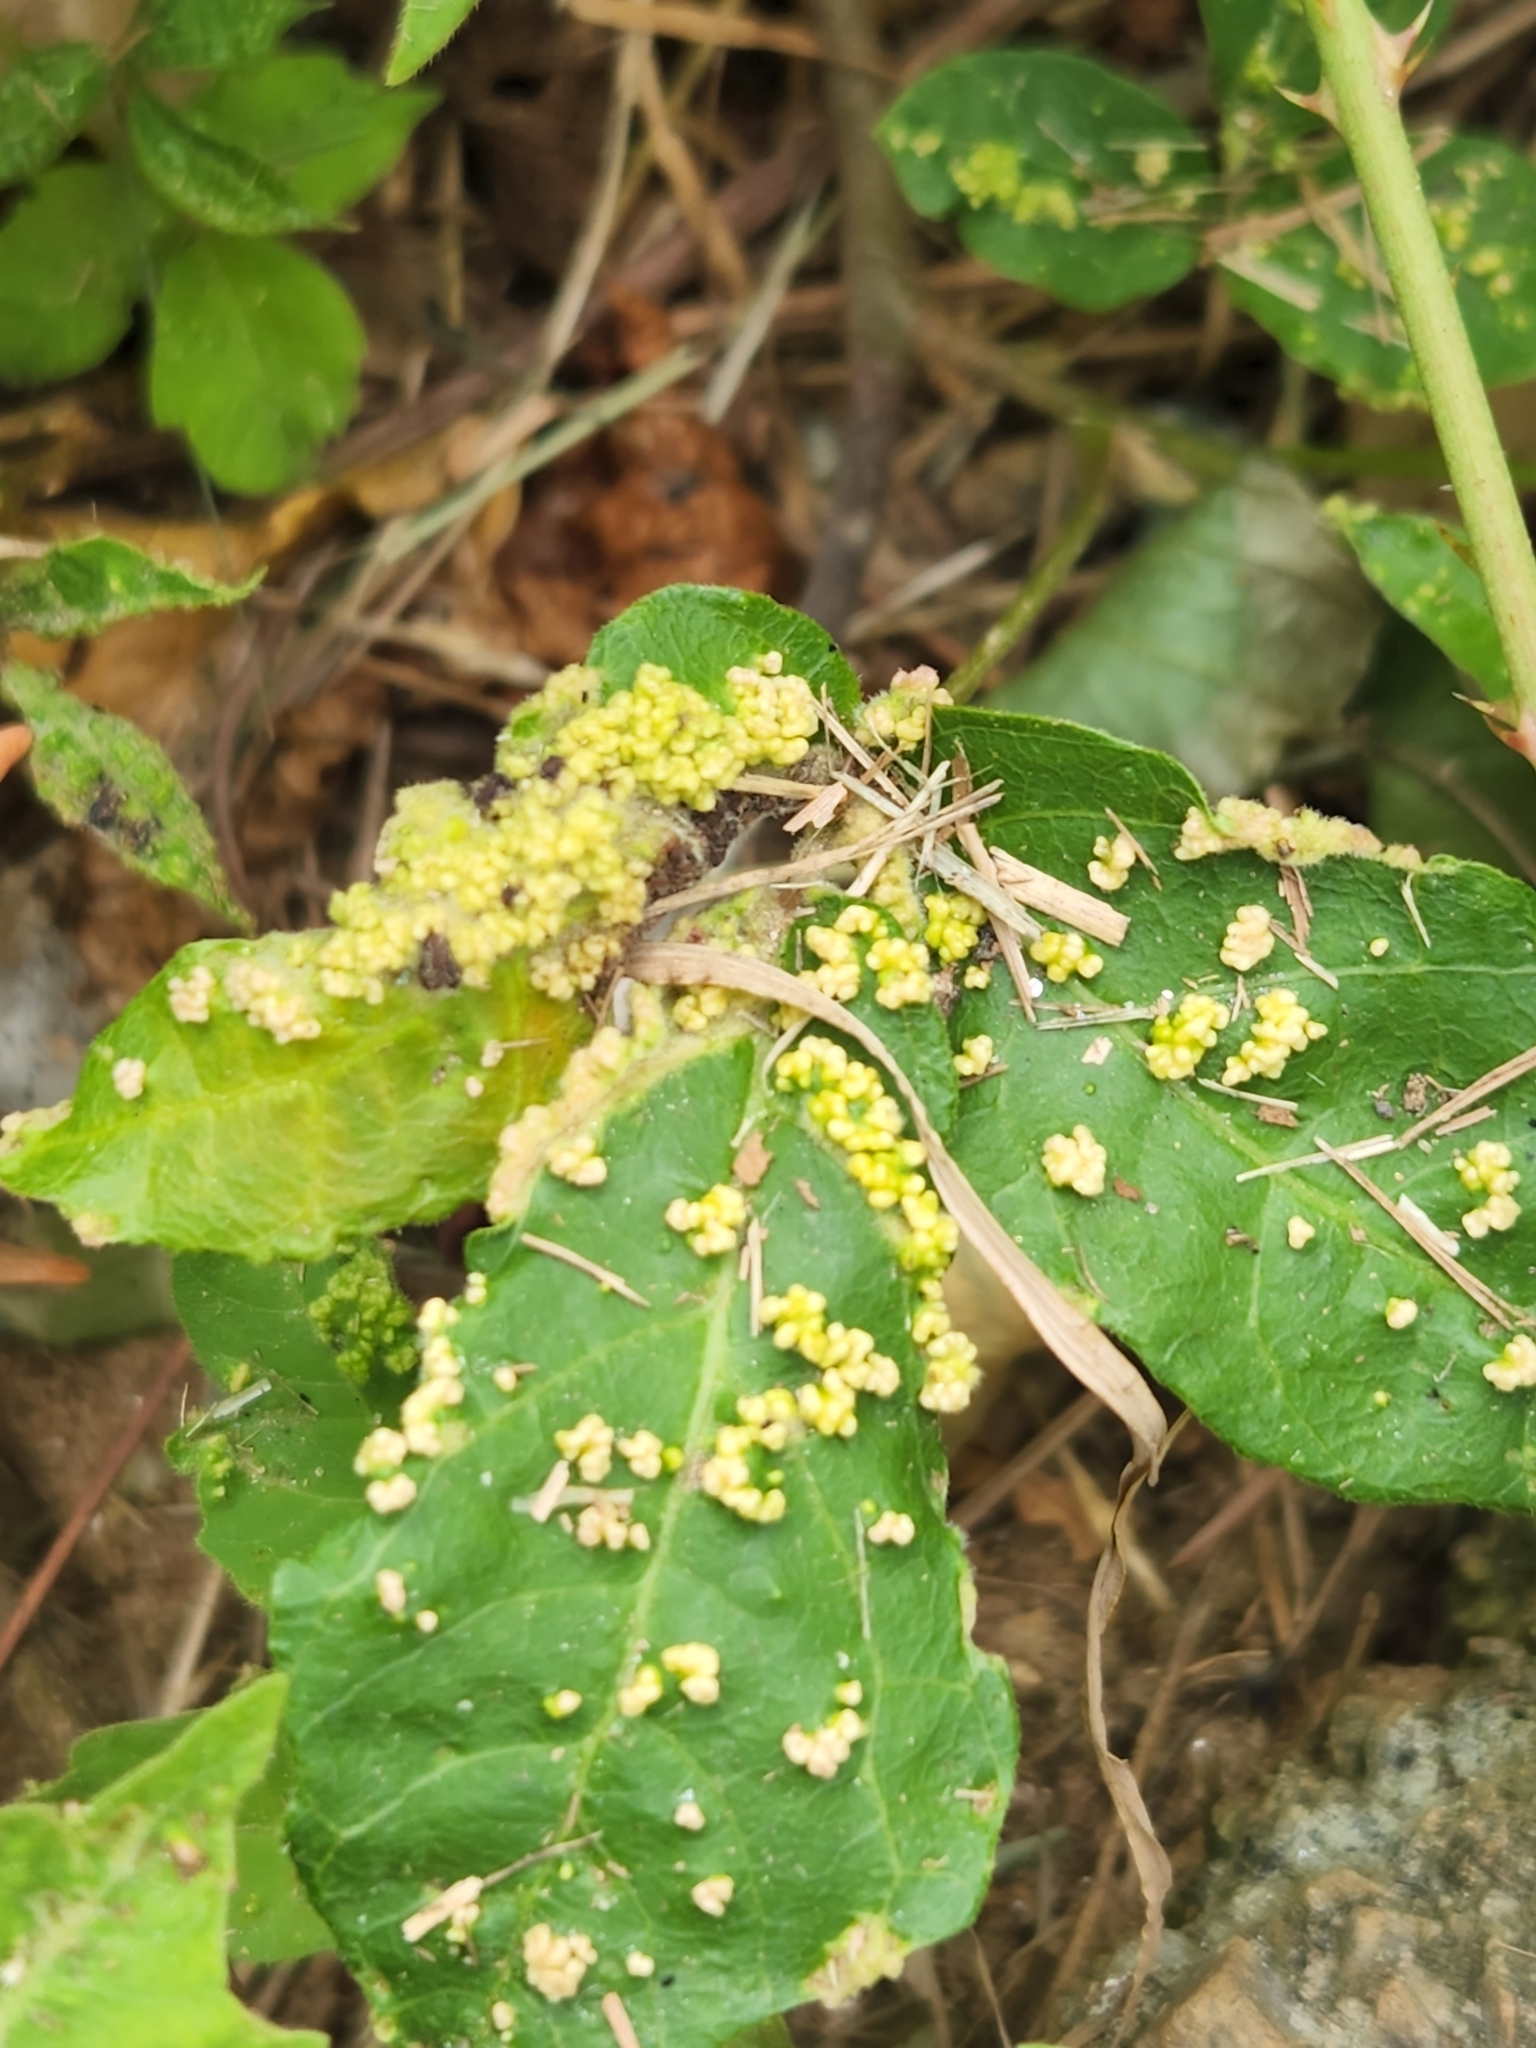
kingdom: Animalia
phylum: Arthropoda
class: Arachnida
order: Trombidiformes
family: Eriophyidae
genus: Aculops
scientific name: Aculops
